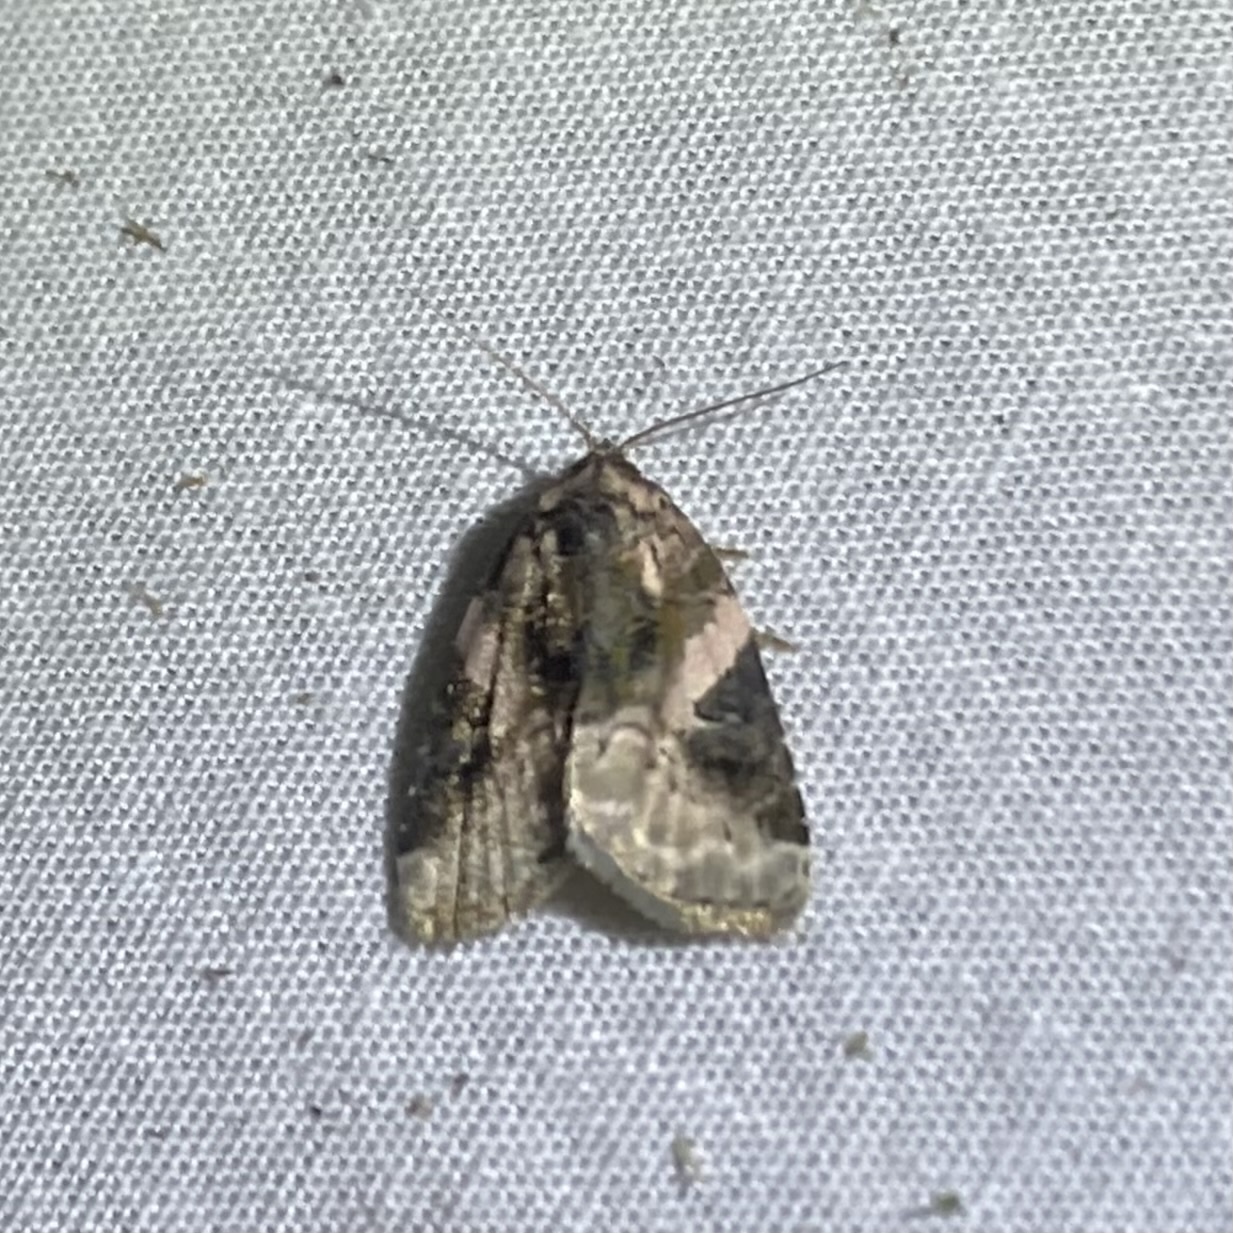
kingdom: Animalia
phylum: Arthropoda
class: Insecta
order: Lepidoptera
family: Noctuidae
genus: Pseudeustrotia
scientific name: Pseudeustrotia carneola
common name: Pink-barred lithacodia moth
